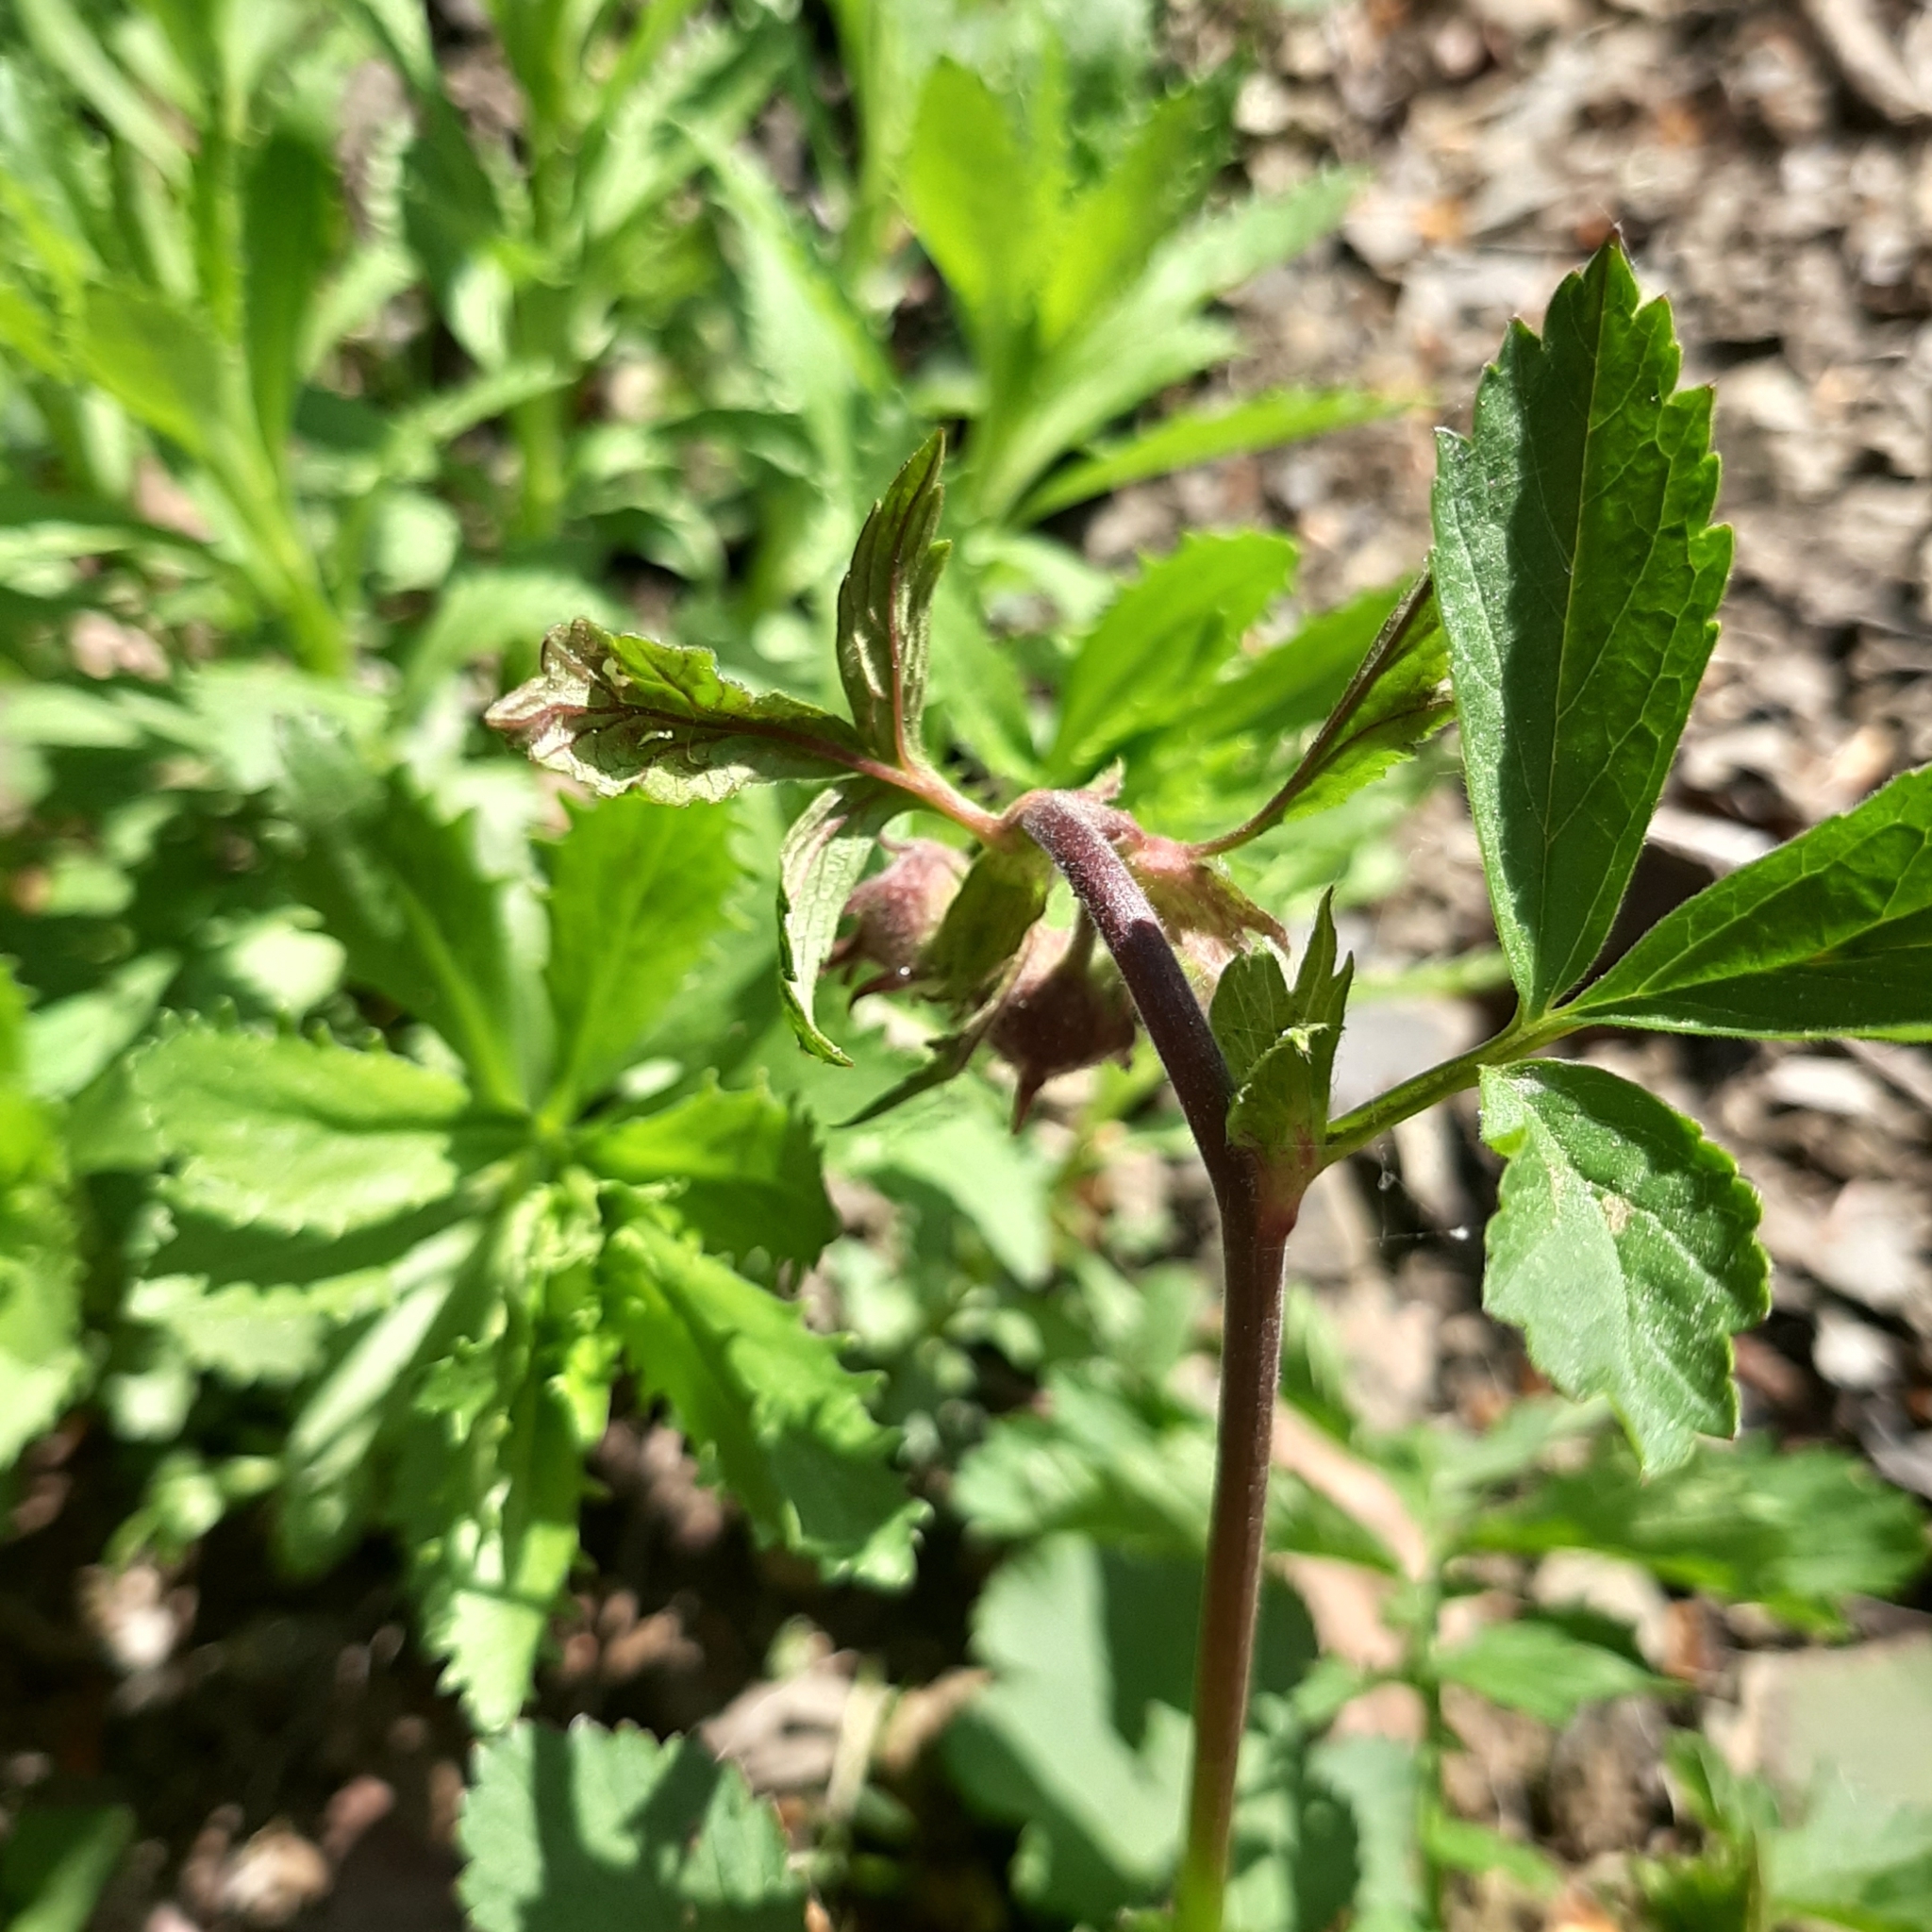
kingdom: Plantae
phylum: Tracheophyta
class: Magnoliopsida
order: Rosales
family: Rosaceae
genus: Geum
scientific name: Geum rivale
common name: Water avens
